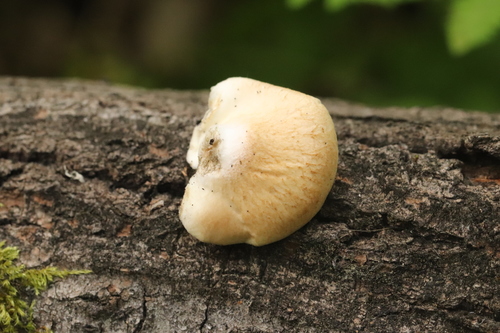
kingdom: Fungi
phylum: Basidiomycota
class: Agaricomycetes
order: Agaricales
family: Crepidotaceae
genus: Crepidotus
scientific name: Crepidotus mollis
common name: Peeling oysterling
